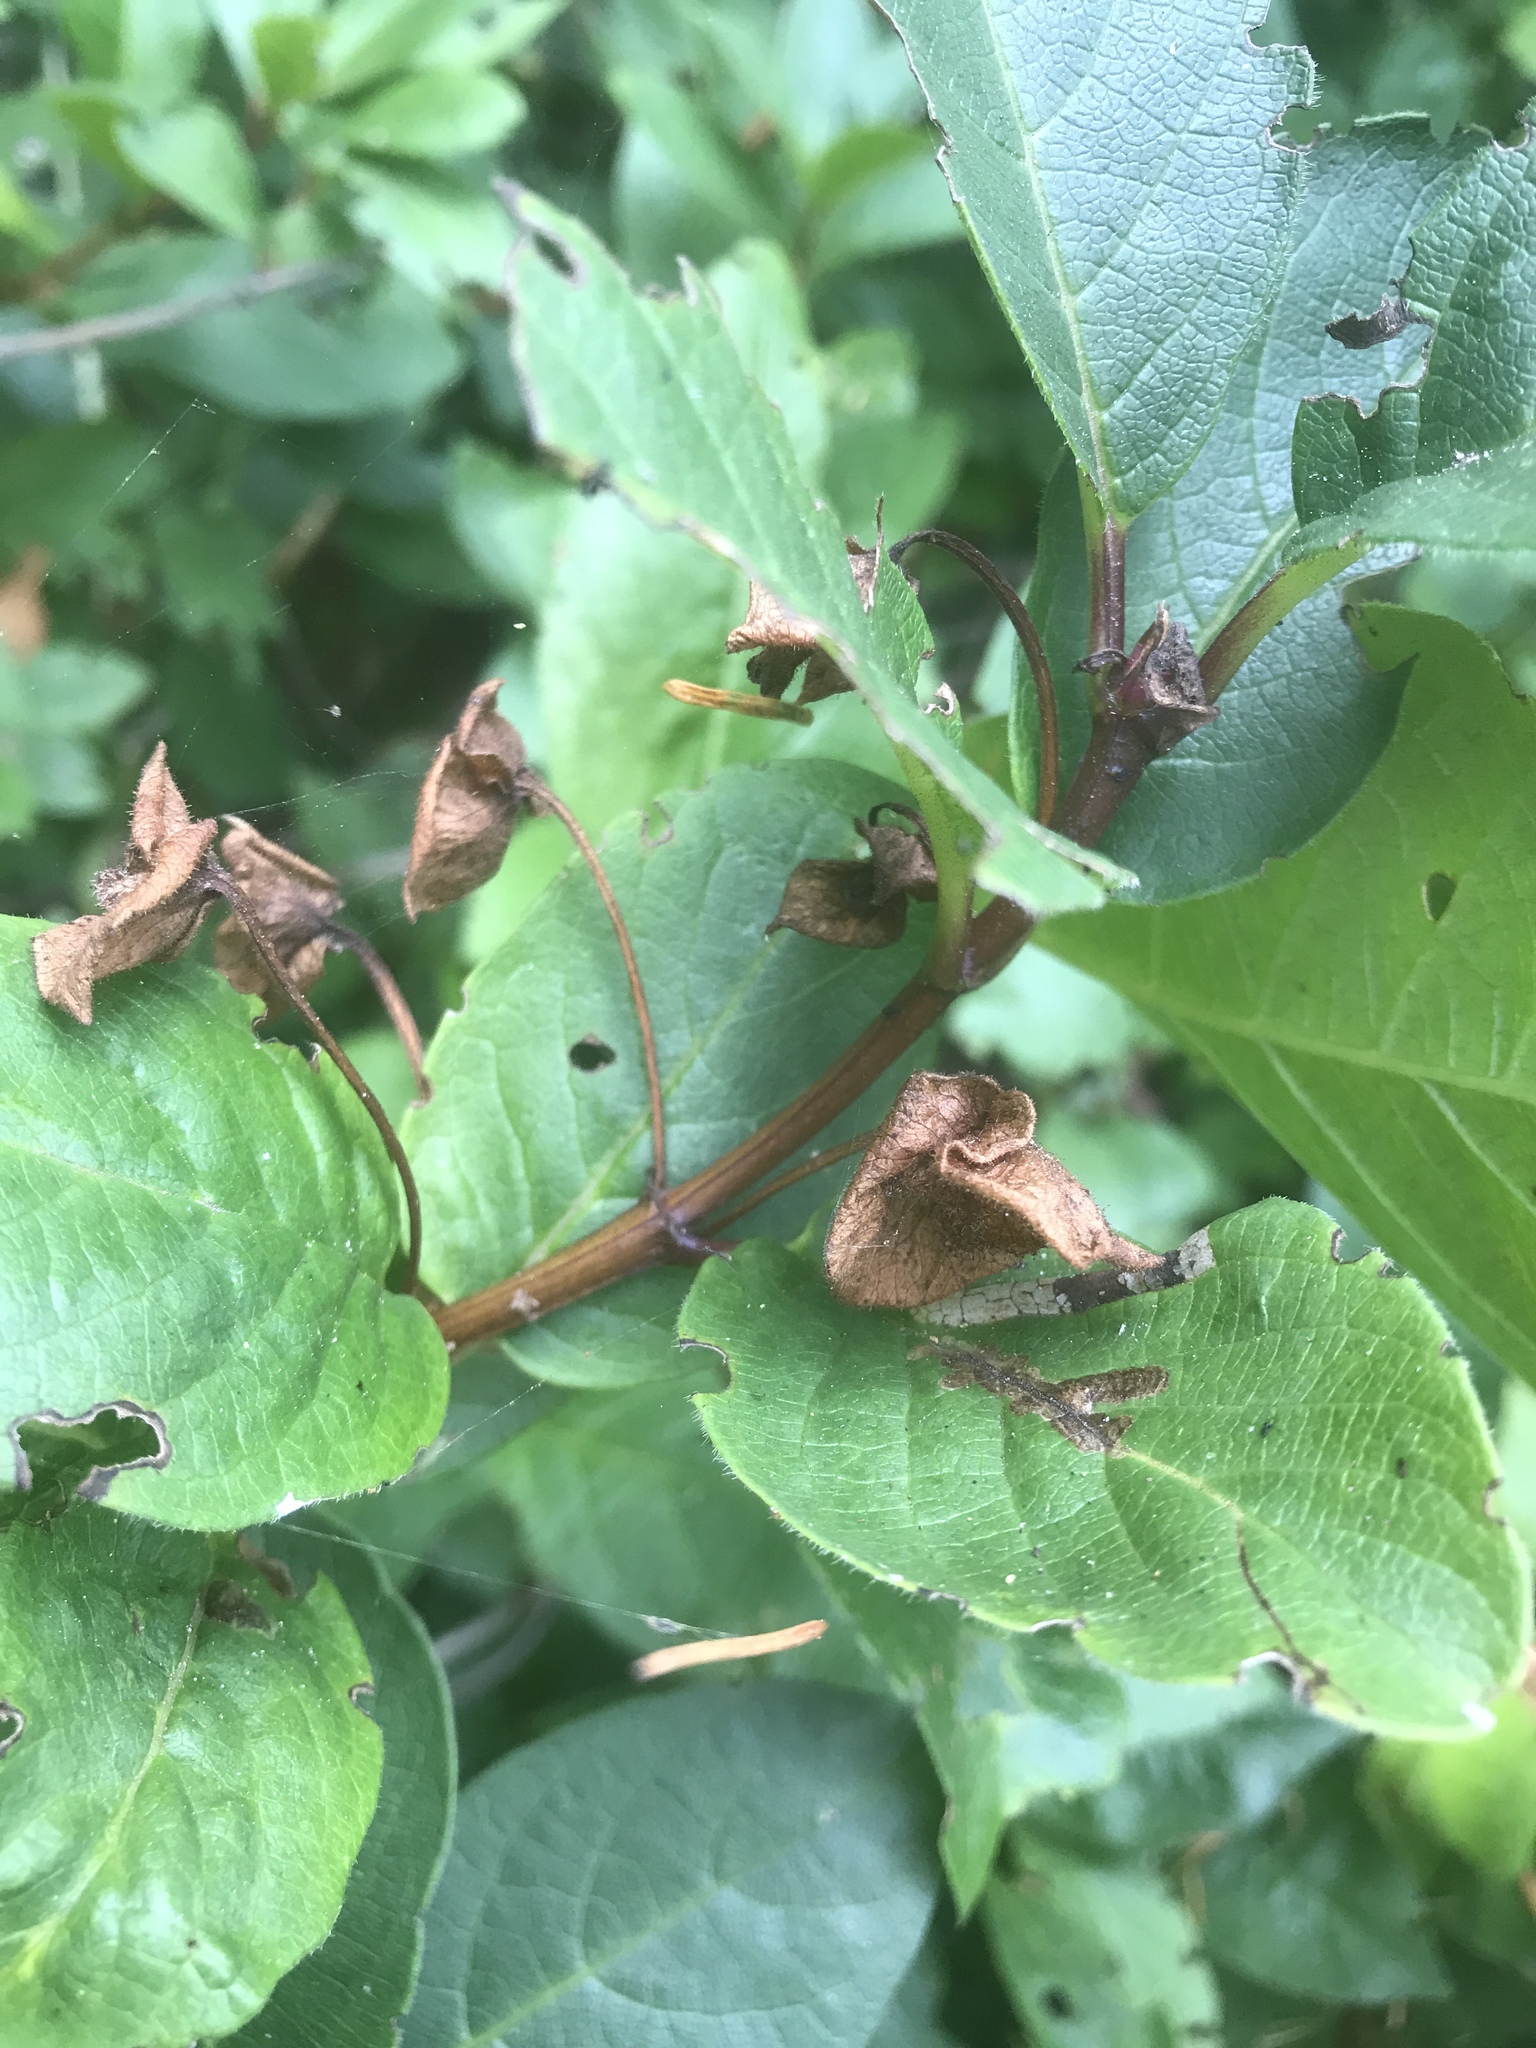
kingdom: Plantae
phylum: Tracheophyta
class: Magnoliopsida
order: Dipsacales
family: Caprifoliaceae
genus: Lonicera
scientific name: Lonicera involucrata
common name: Californian honeysuckle
